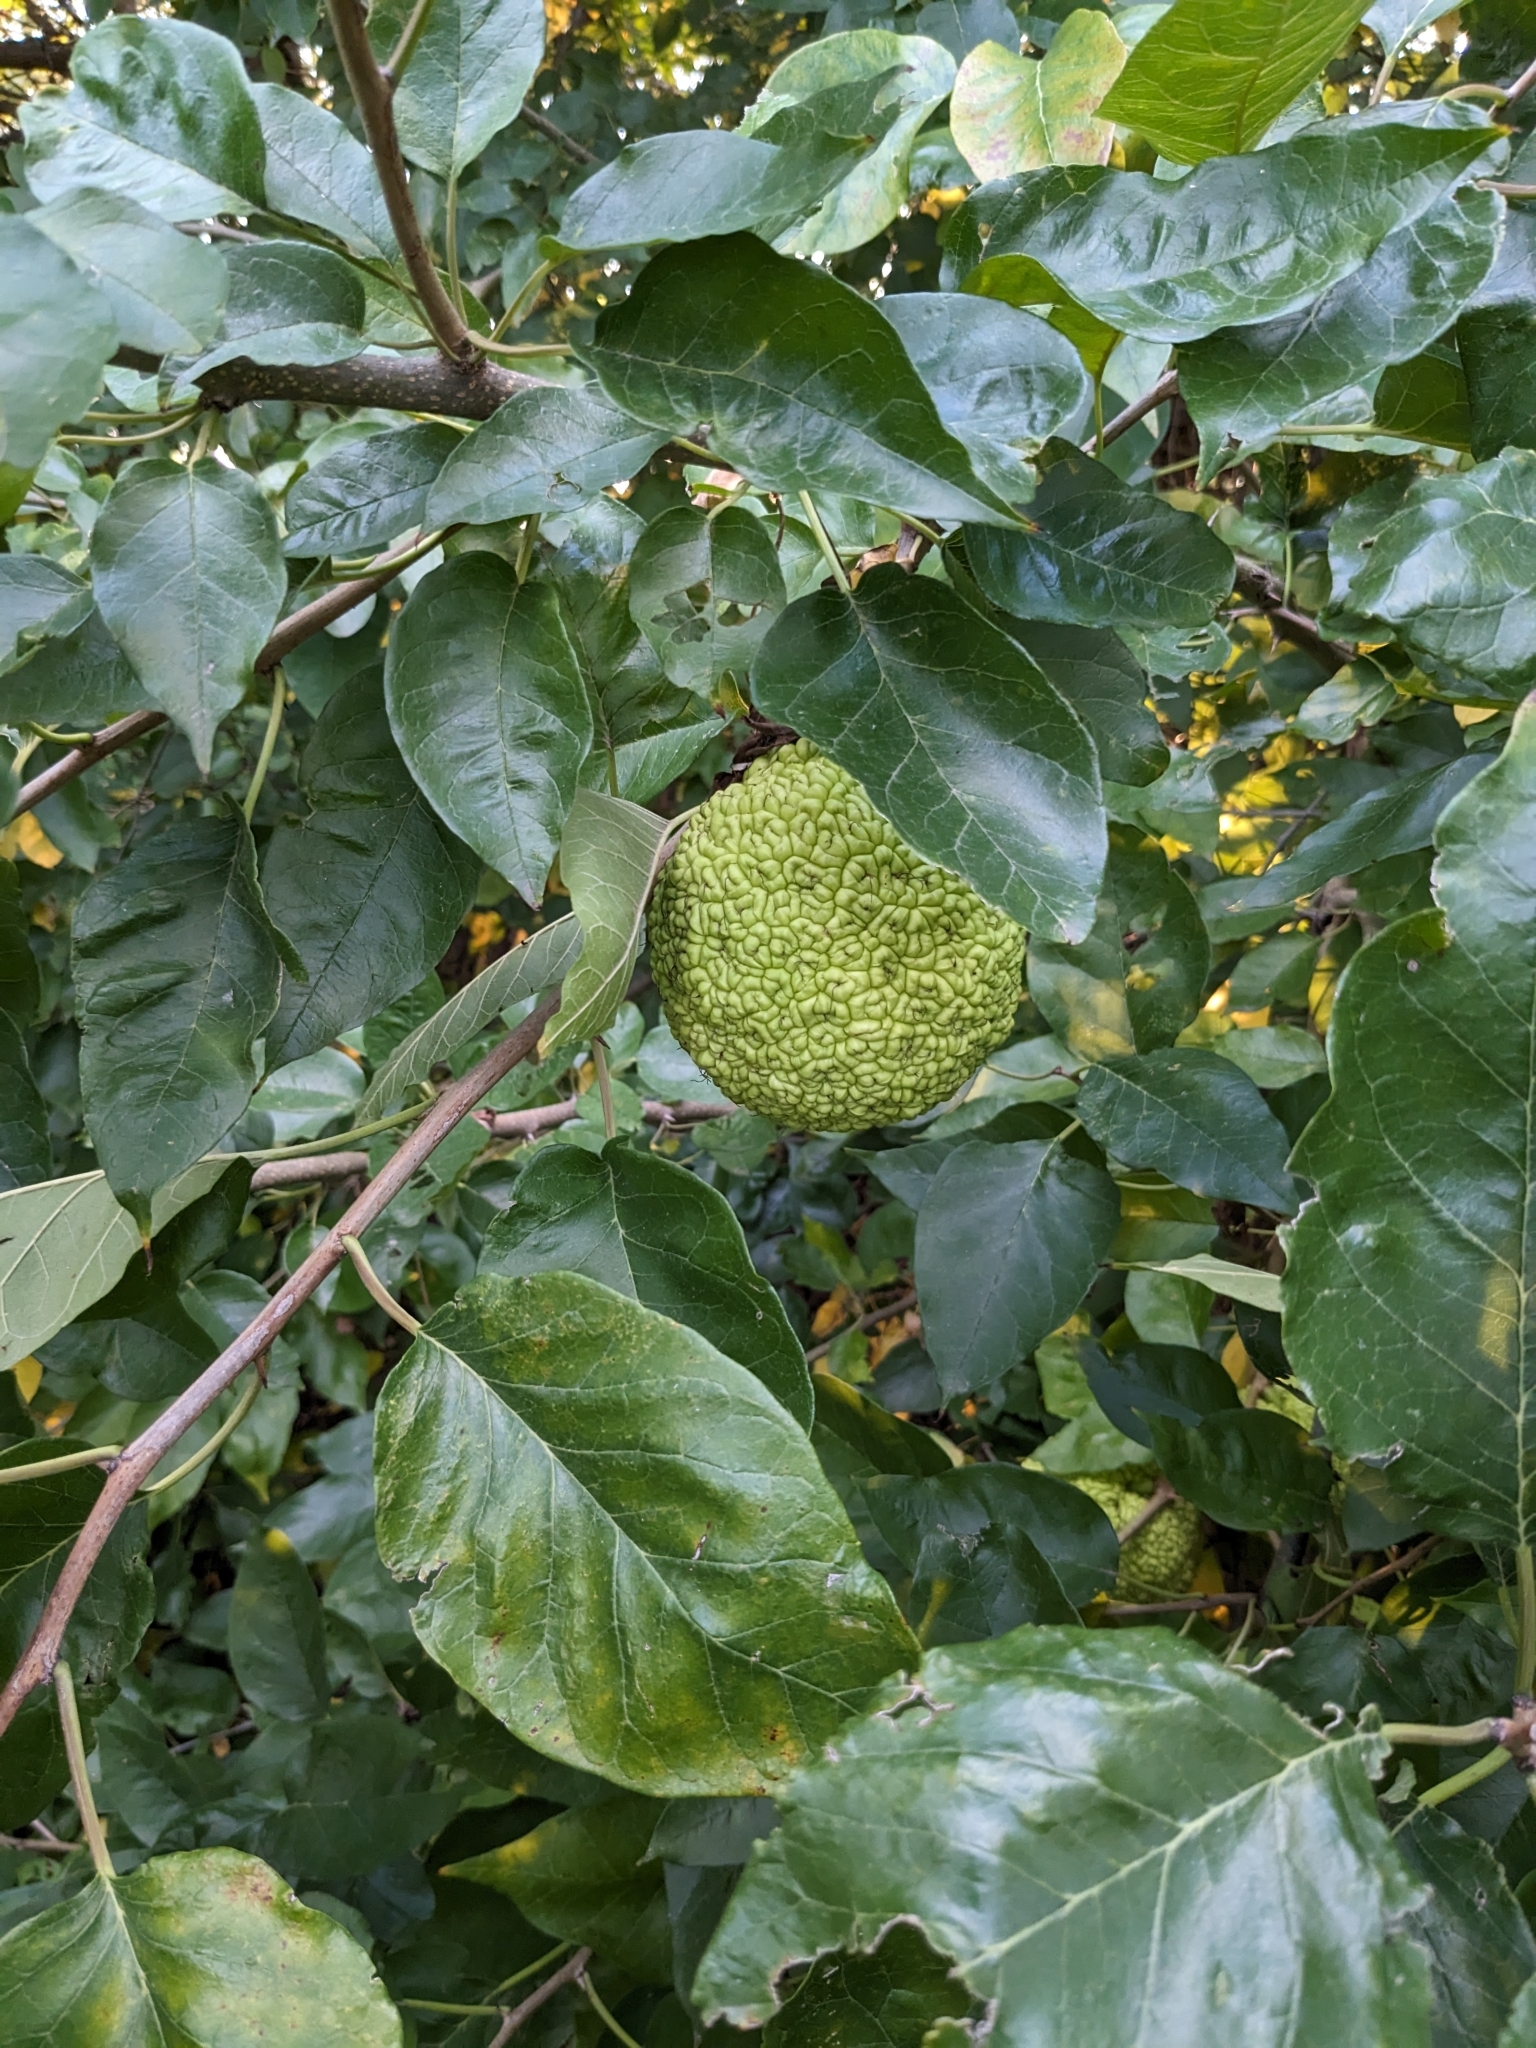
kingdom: Plantae
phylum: Tracheophyta
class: Magnoliopsida
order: Rosales
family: Moraceae
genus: Maclura
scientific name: Maclura pomifera
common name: Osage-orange
